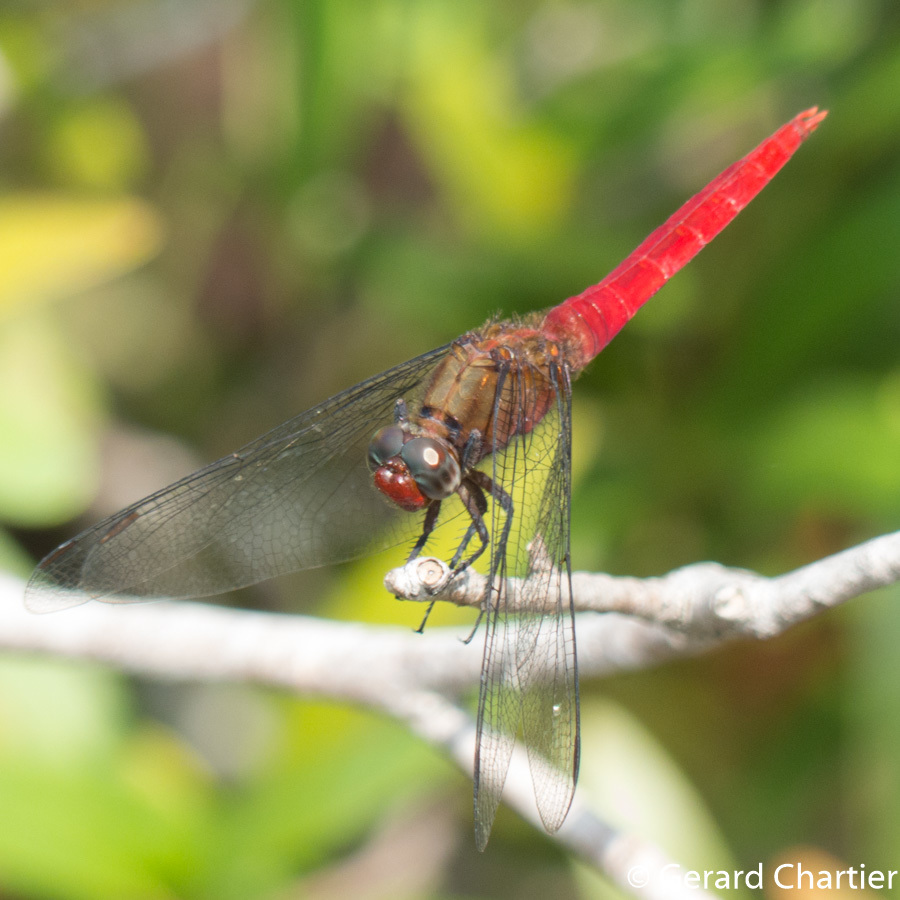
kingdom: Animalia
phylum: Arthropoda
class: Insecta
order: Odonata
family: Libellulidae
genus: Orthetrum
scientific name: Orthetrum chrysis
